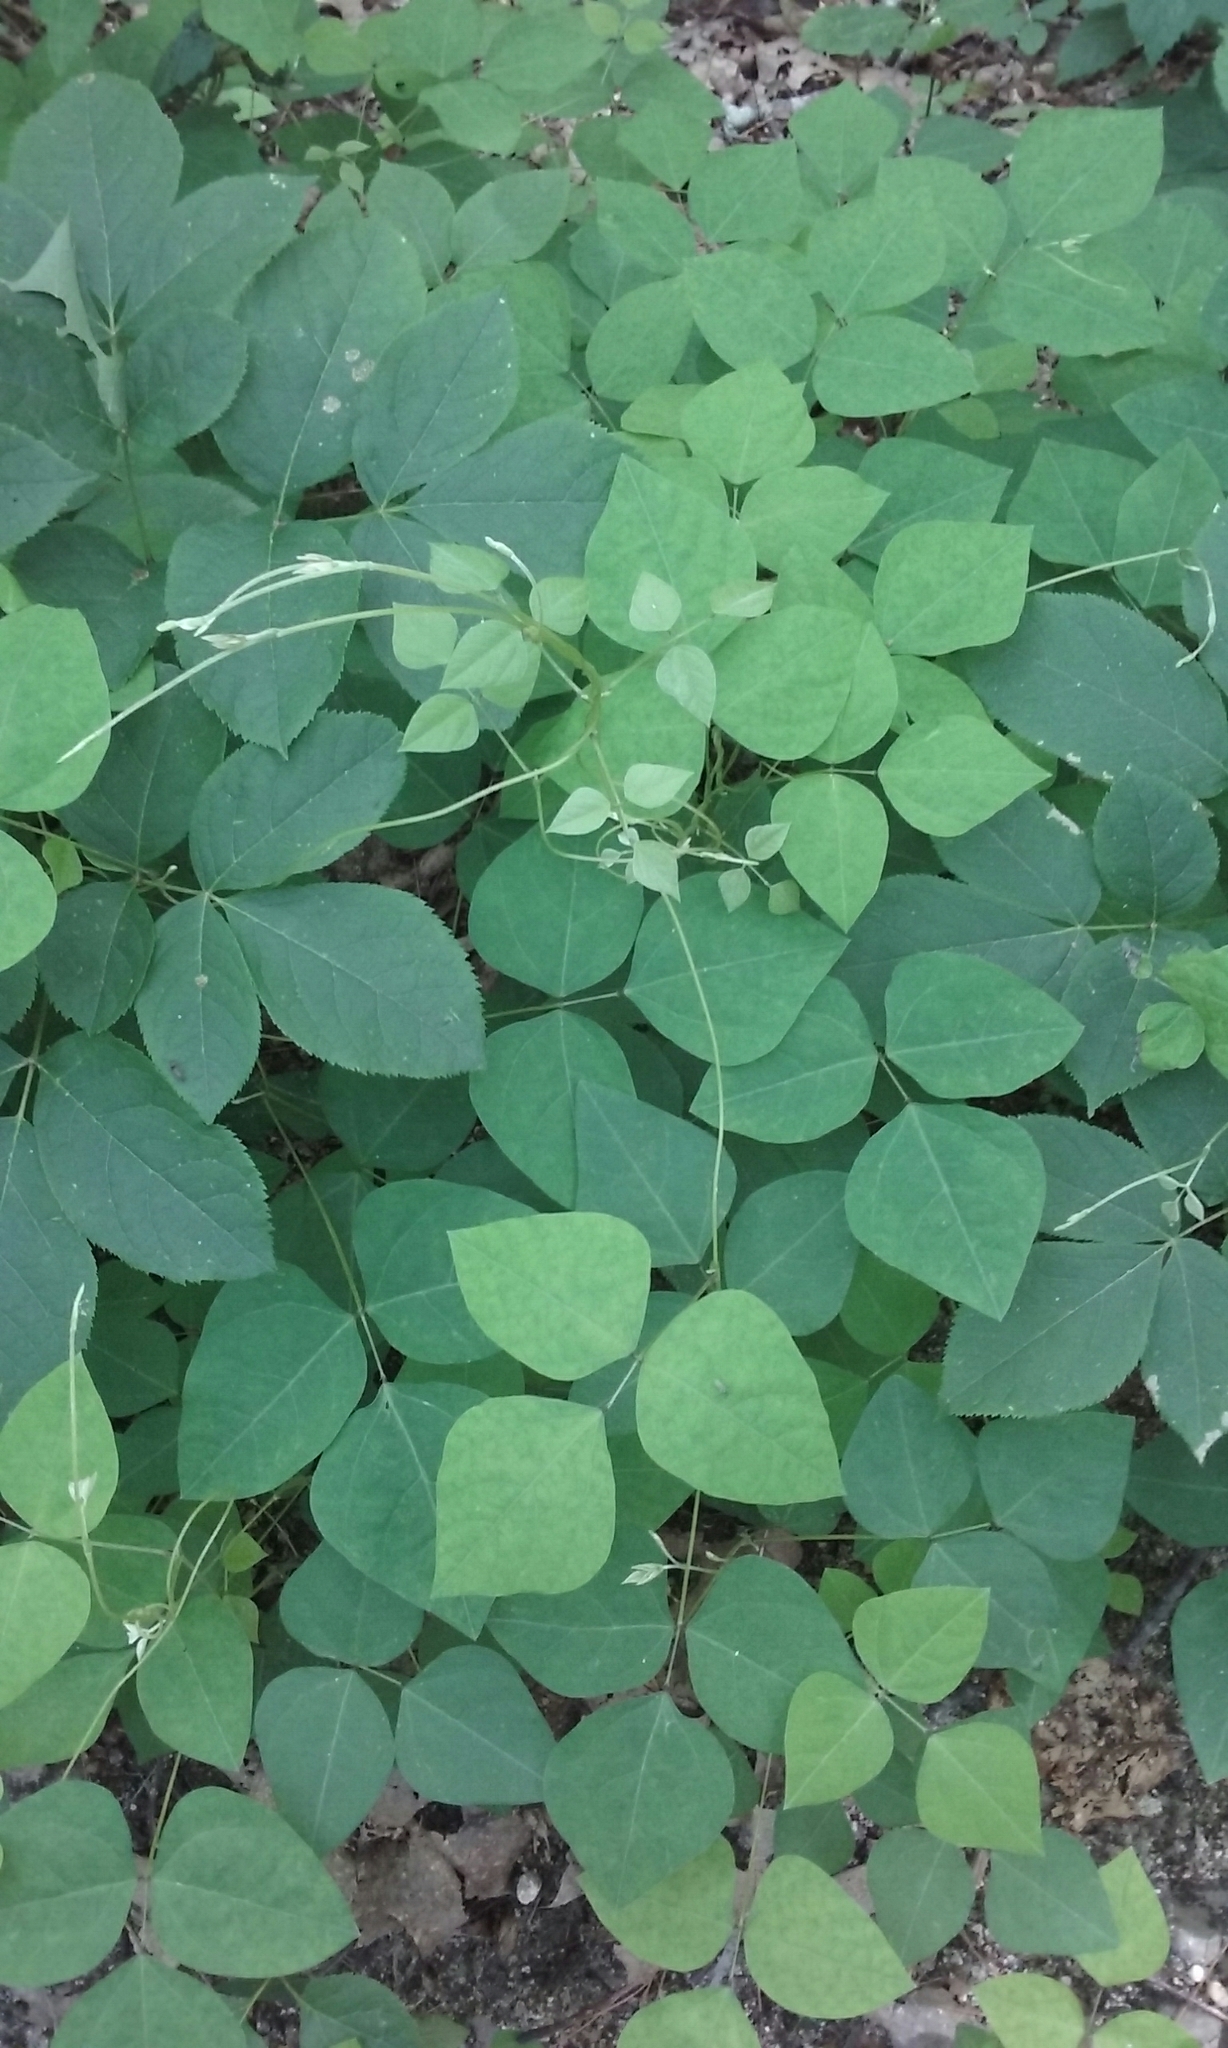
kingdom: Plantae
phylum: Tracheophyta
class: Magnoliopsida
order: Fabales
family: Fabaceae
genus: Amphicarpaea
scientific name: Amphicarpaea bracteata
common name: American hog peanut
